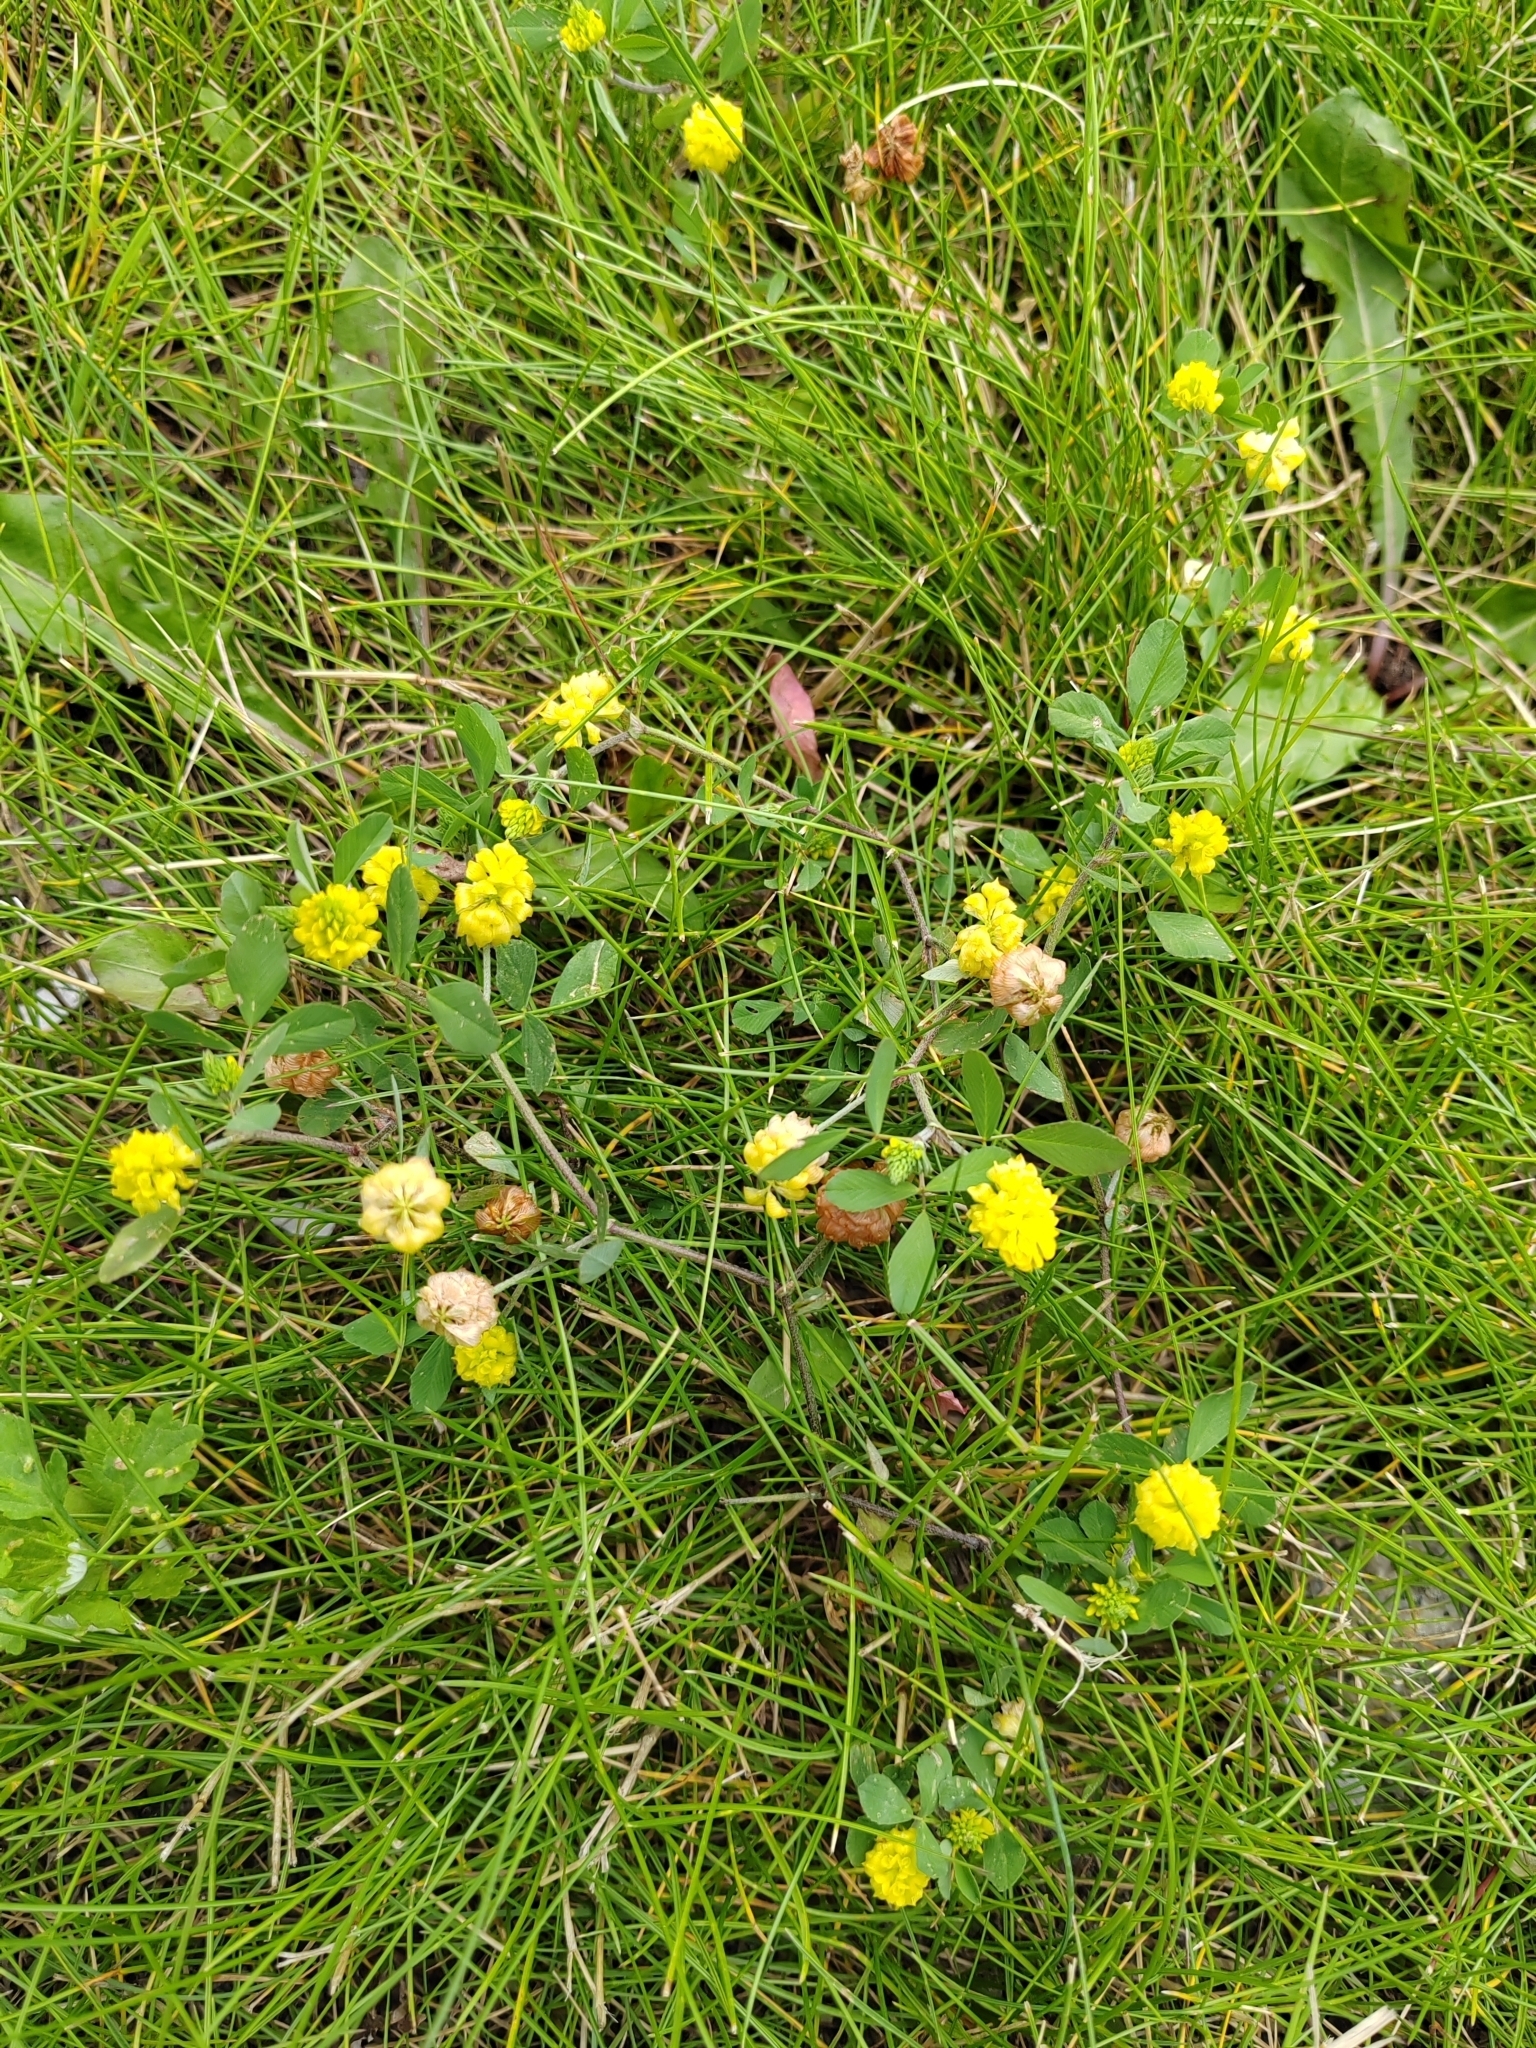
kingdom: Plantae
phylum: Tracheophyta
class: Magnoliopsida
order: Fabales
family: Fabaceae
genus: Trifolium
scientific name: Trifolium campestre
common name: Field clover
